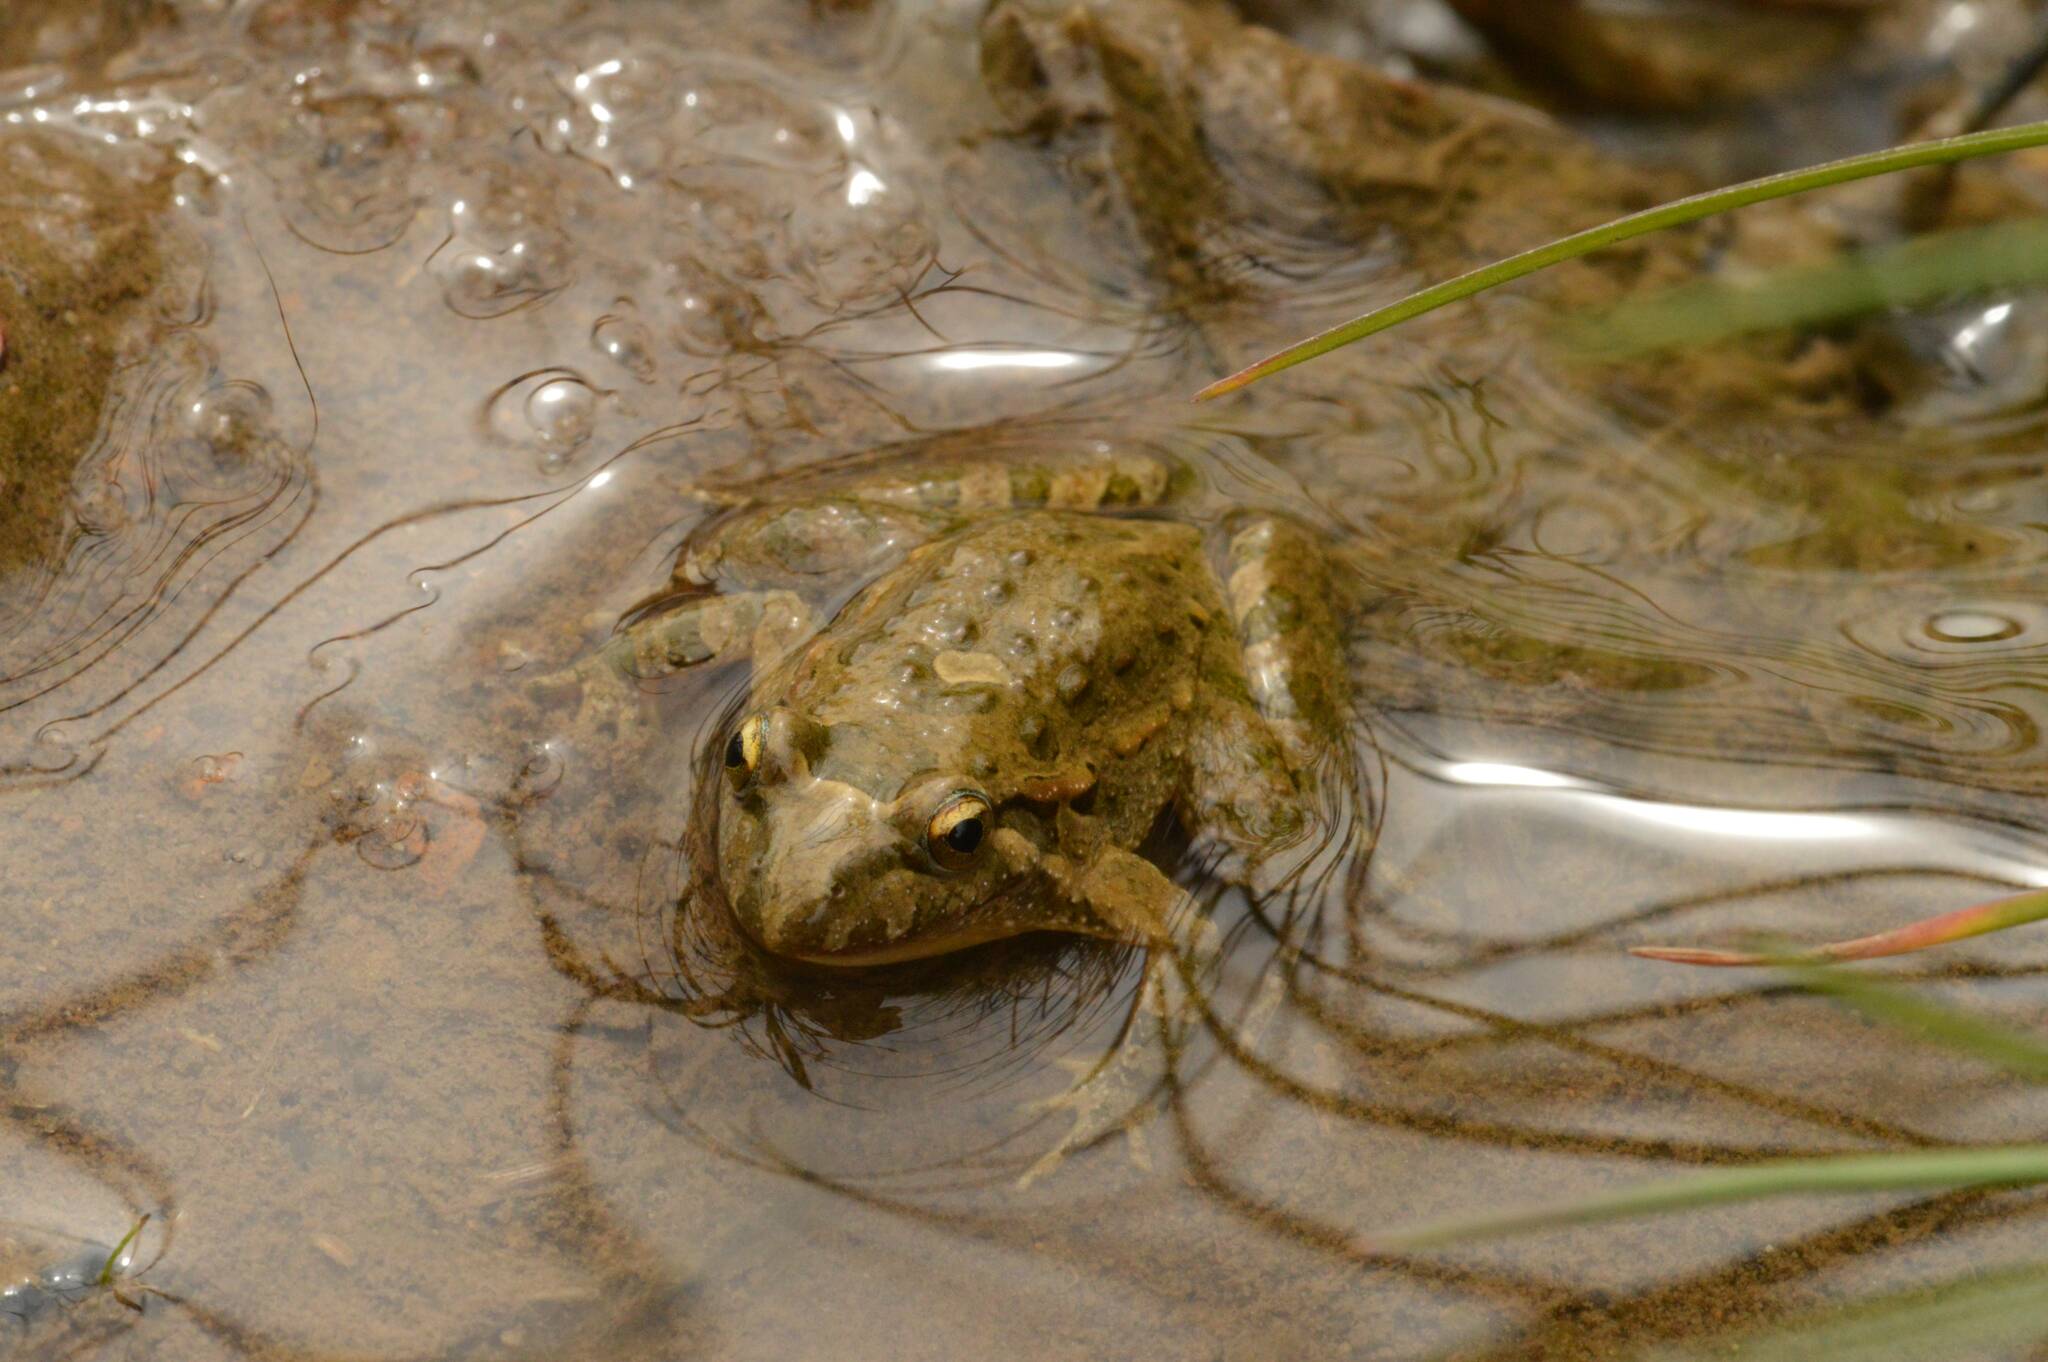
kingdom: Animalia
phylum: Chordata
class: Amphibia
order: Anura
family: Alytidae
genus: Discoglossus
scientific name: Discoglossus pictus
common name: Painted frog
